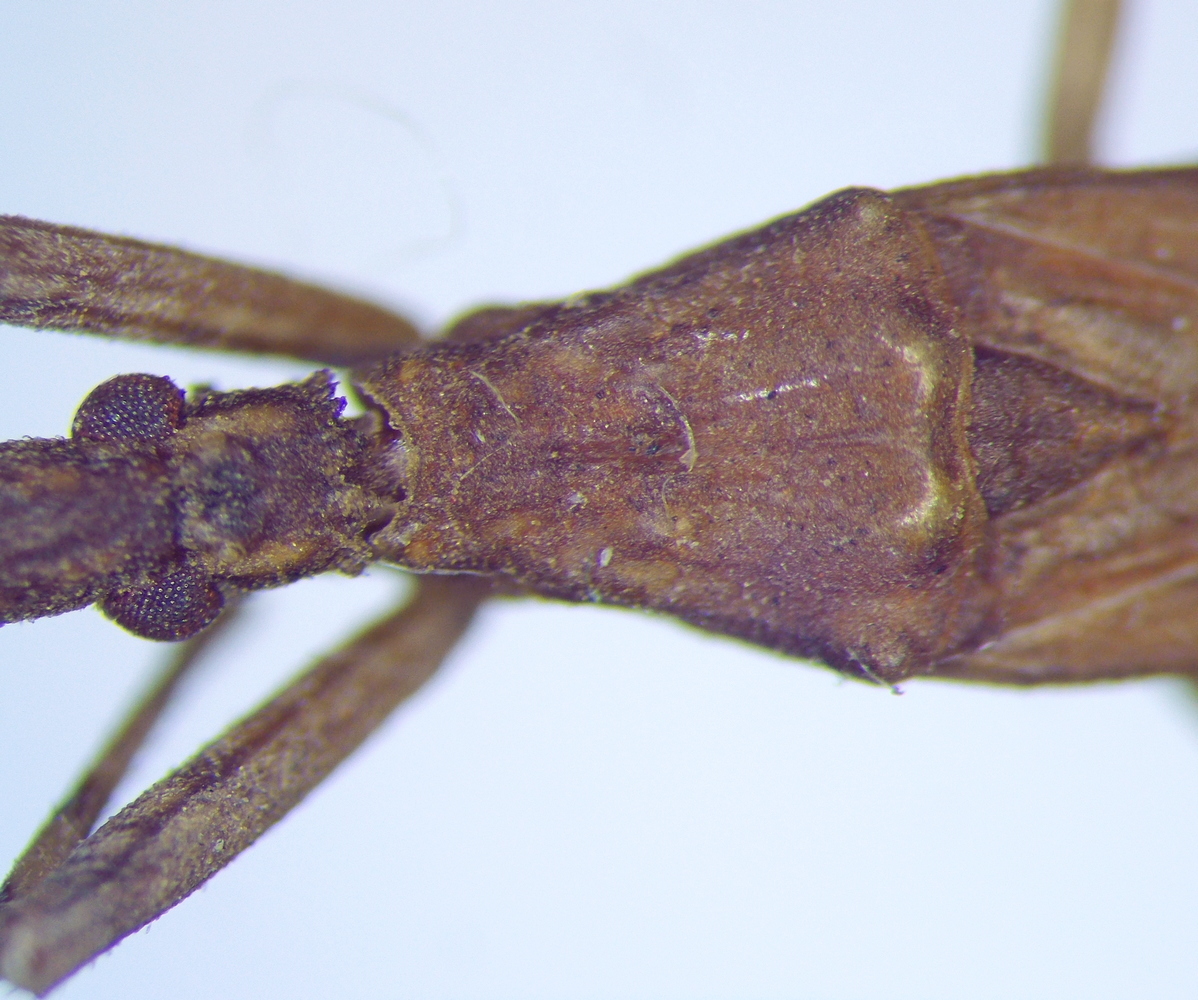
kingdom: Animalia
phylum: Arthropoda
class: Insecta
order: Hemiptera
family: Reduviidae
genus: Pygolampis
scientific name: Pygolampis bidentata
